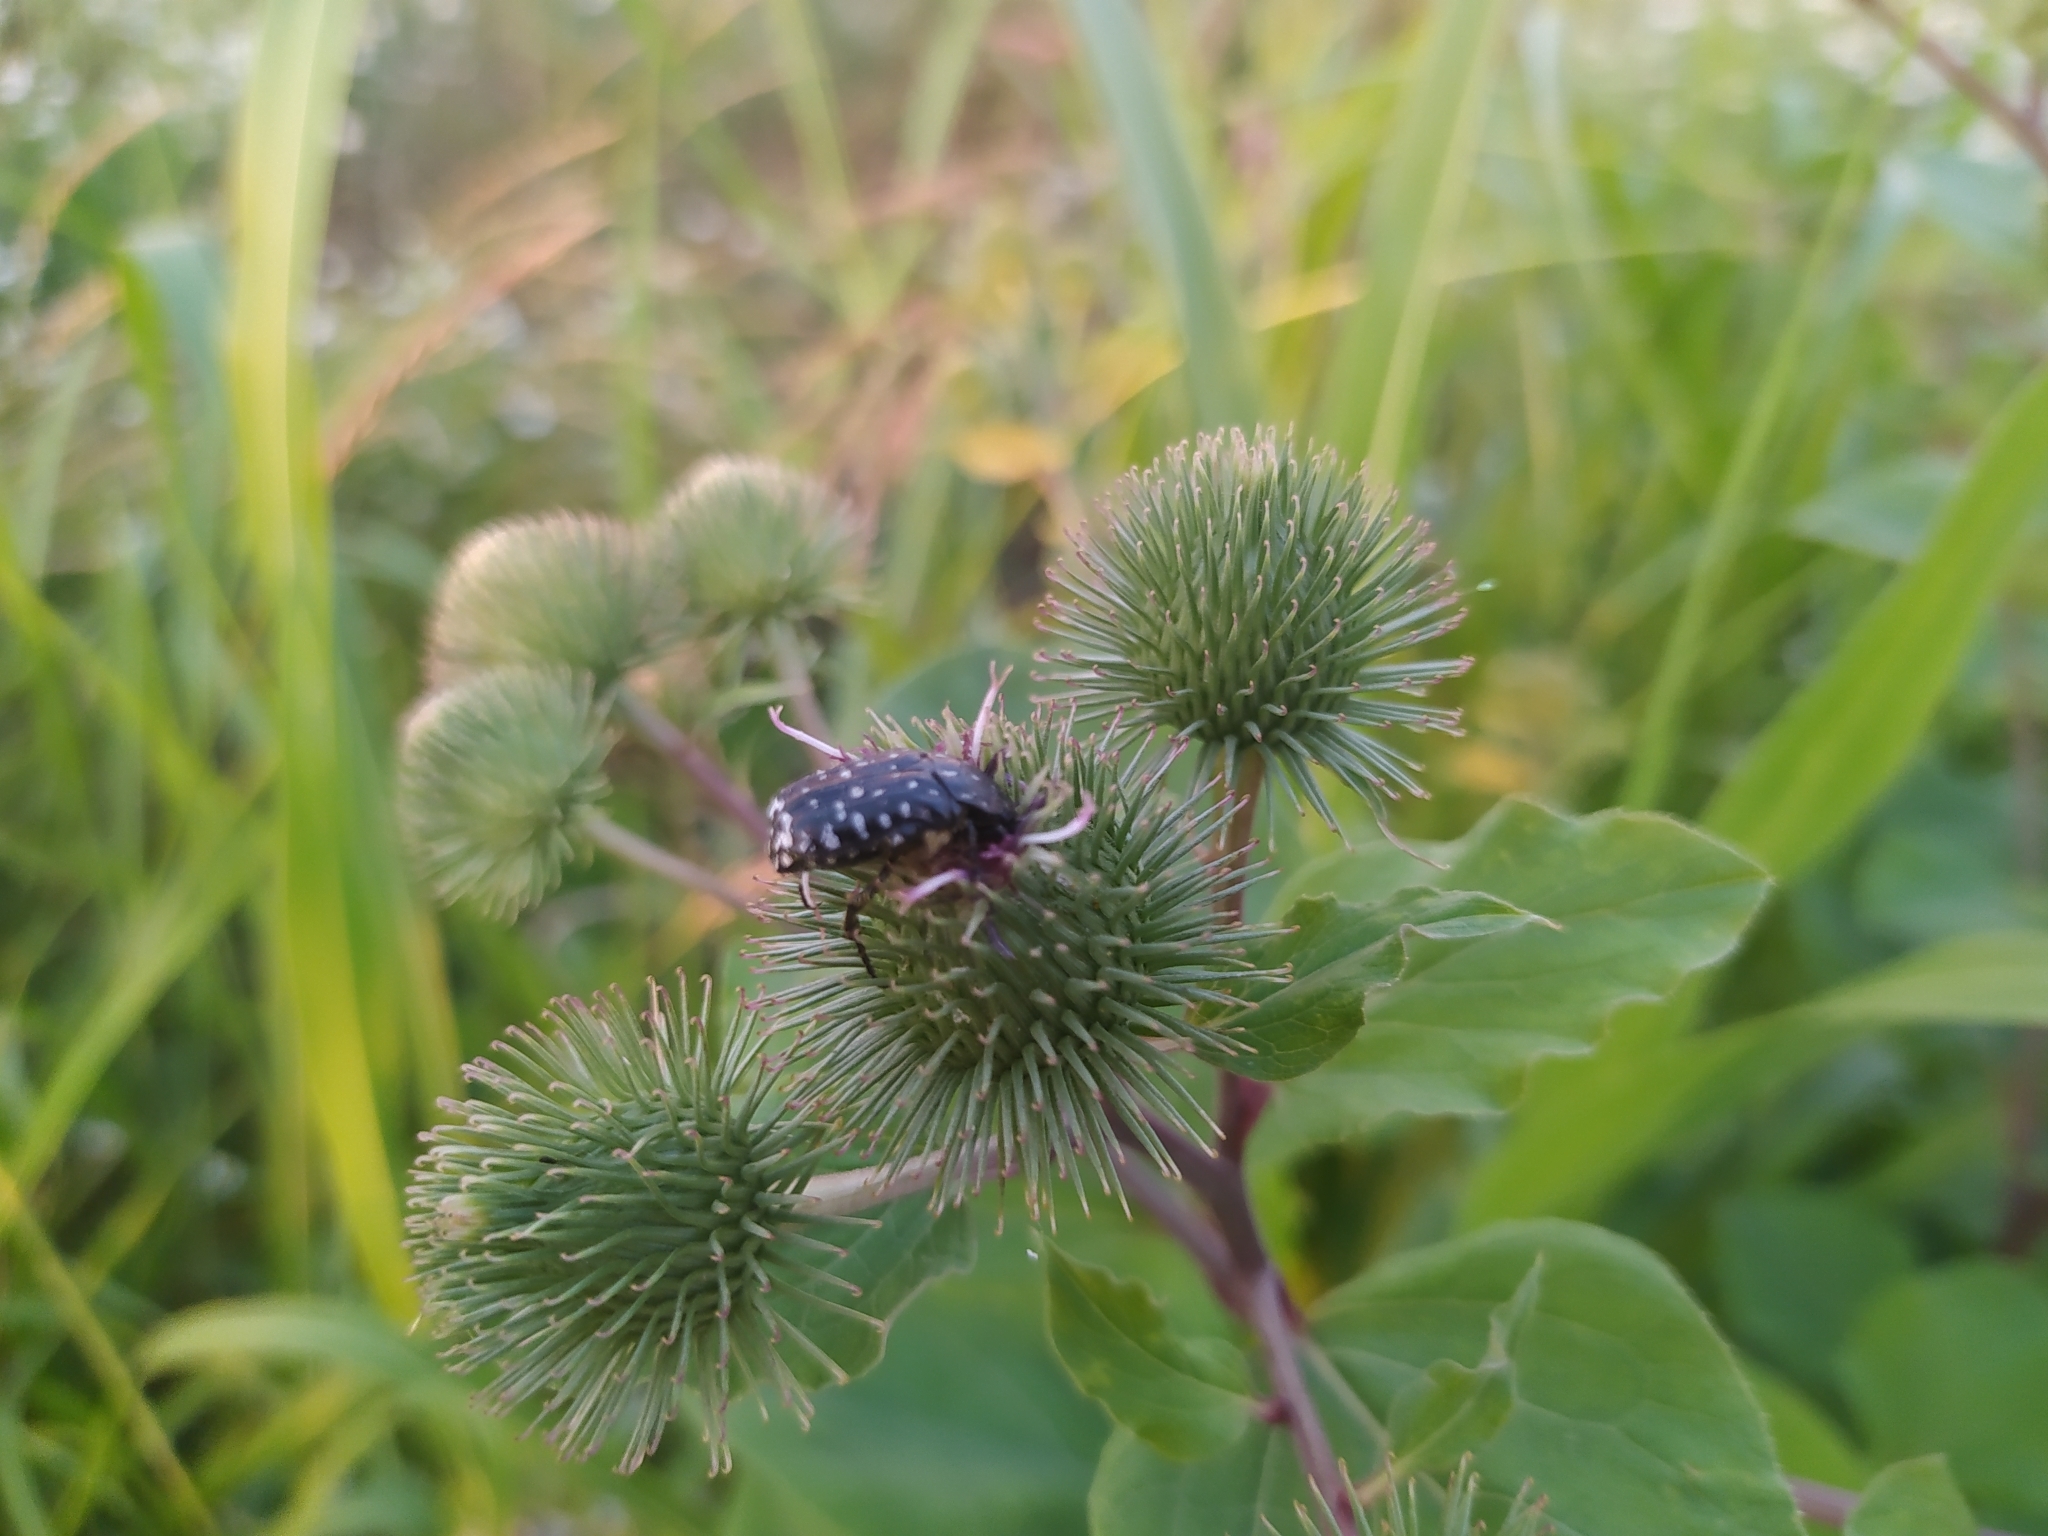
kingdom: Animalia
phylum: Arthropoda
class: Insecta
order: Coleoptera
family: Scarabaeidae
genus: Oxythyrea
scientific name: Oxythyrea funesta
